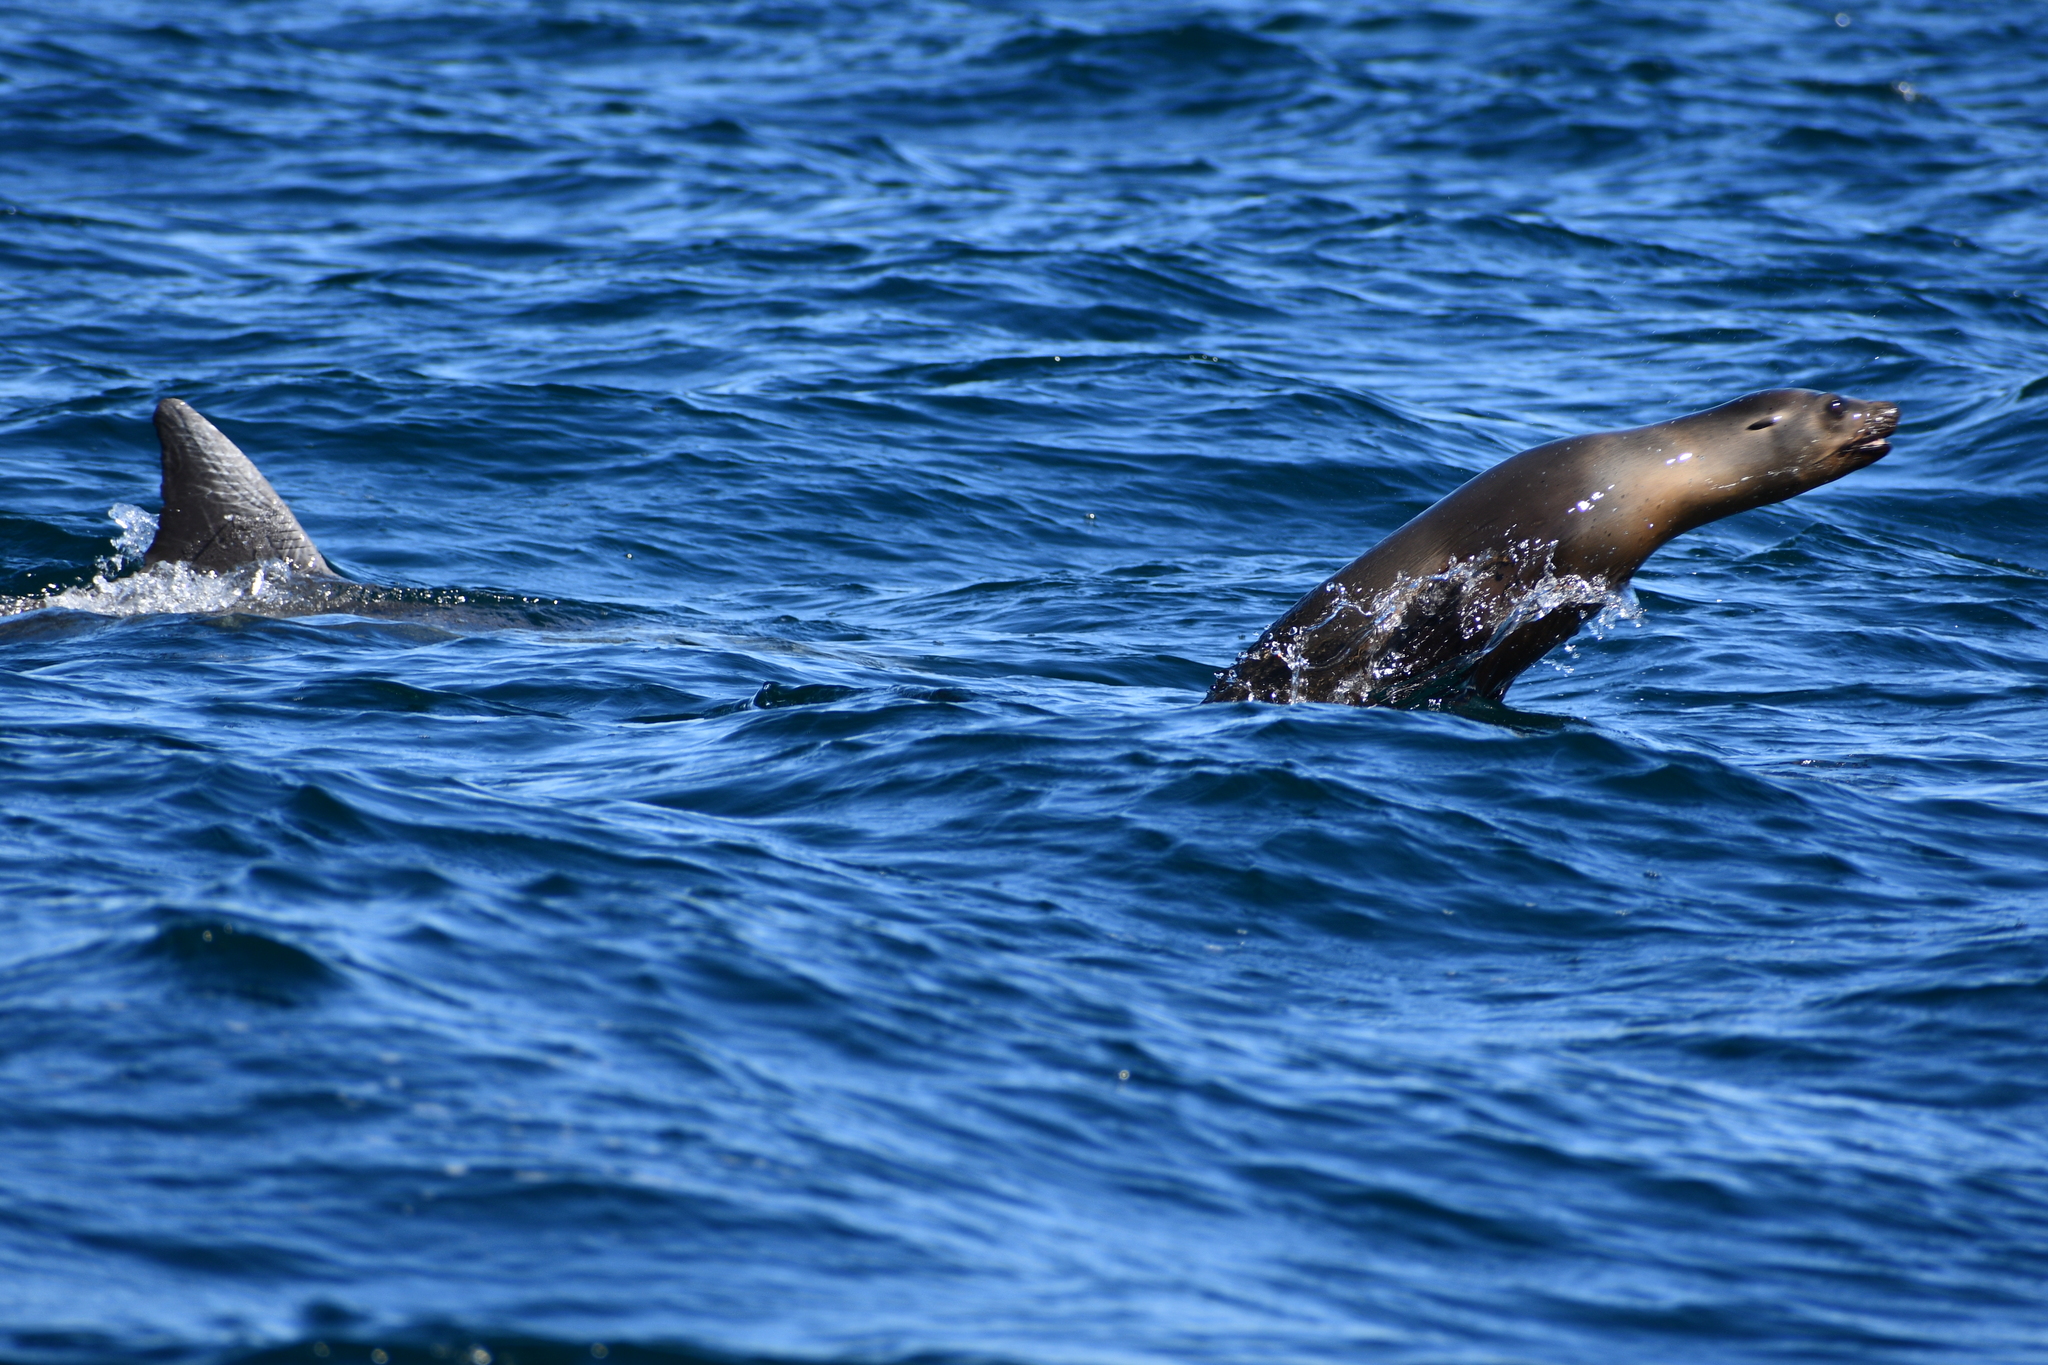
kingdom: Animalia
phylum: Chordata
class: Mammalia
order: Carnivora
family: Otariidae
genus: Zalophus
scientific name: Zalophus californianus
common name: California sea lion
